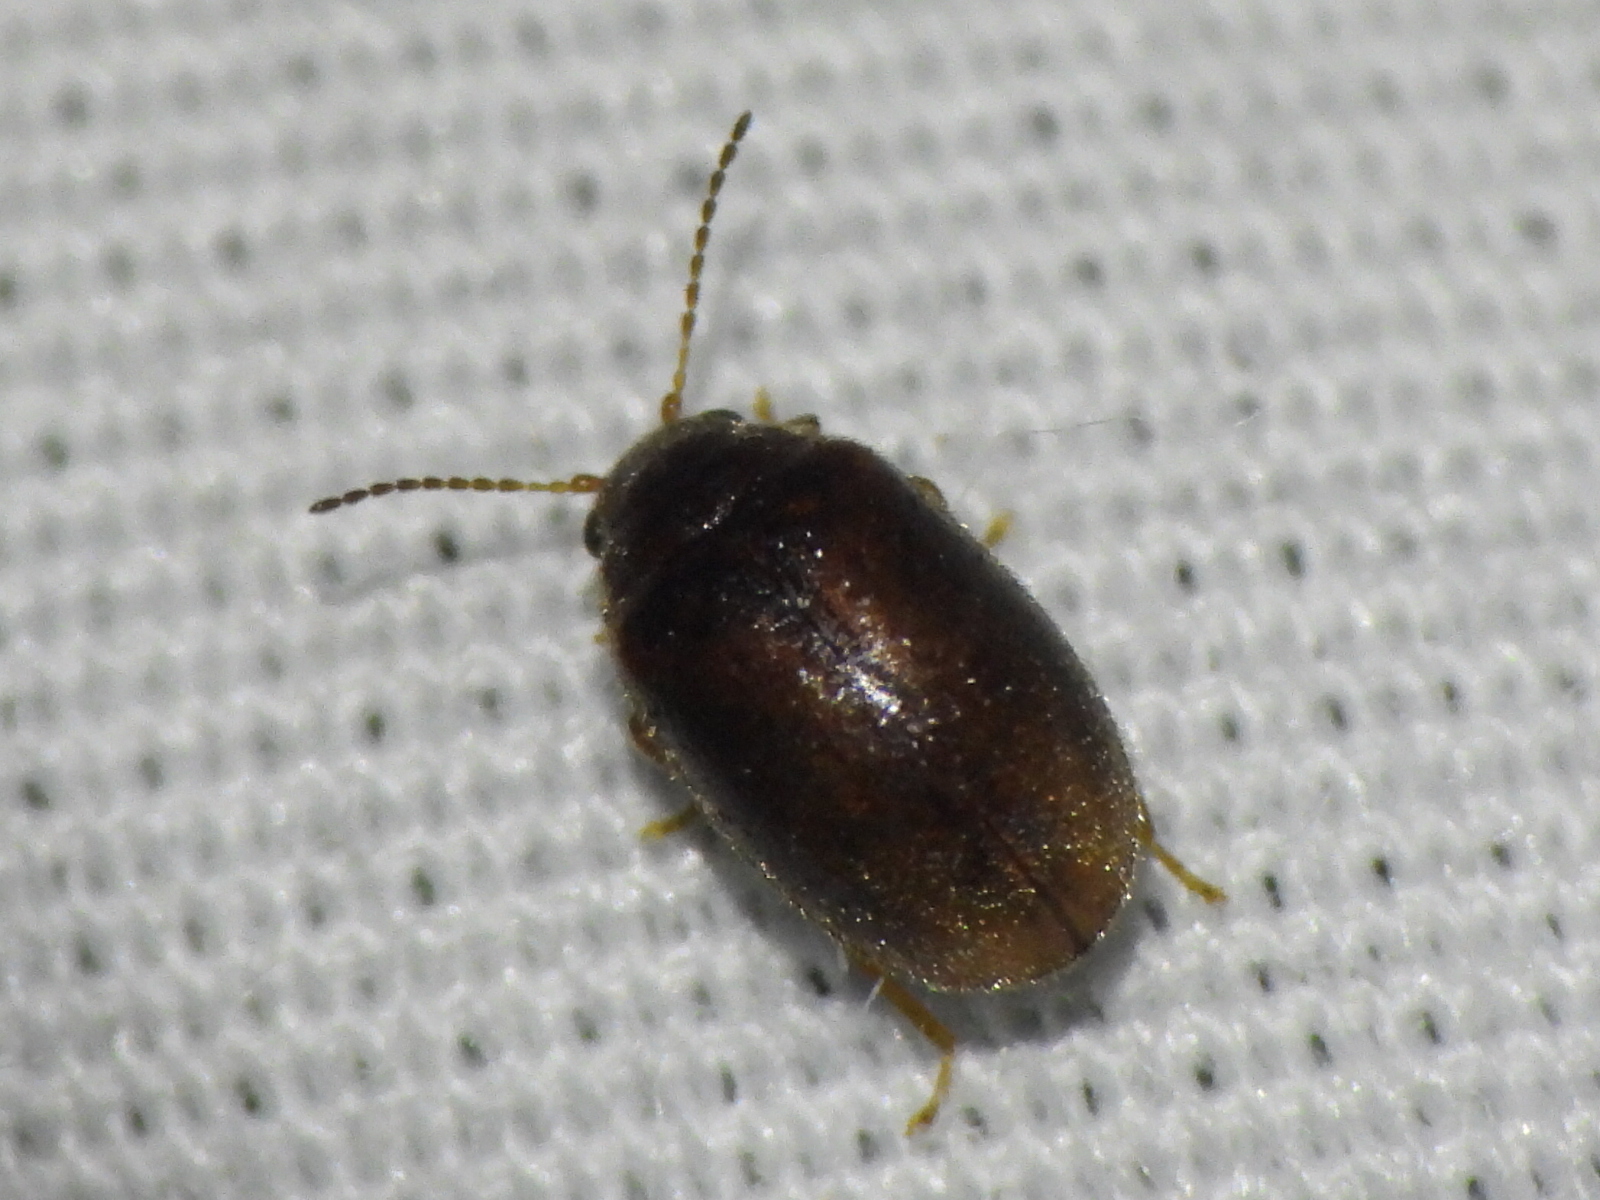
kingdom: Animalia
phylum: Arthropoda
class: Insecta
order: Coleoptera
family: Scirtidae
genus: Contacyphon
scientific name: Contacyphon
